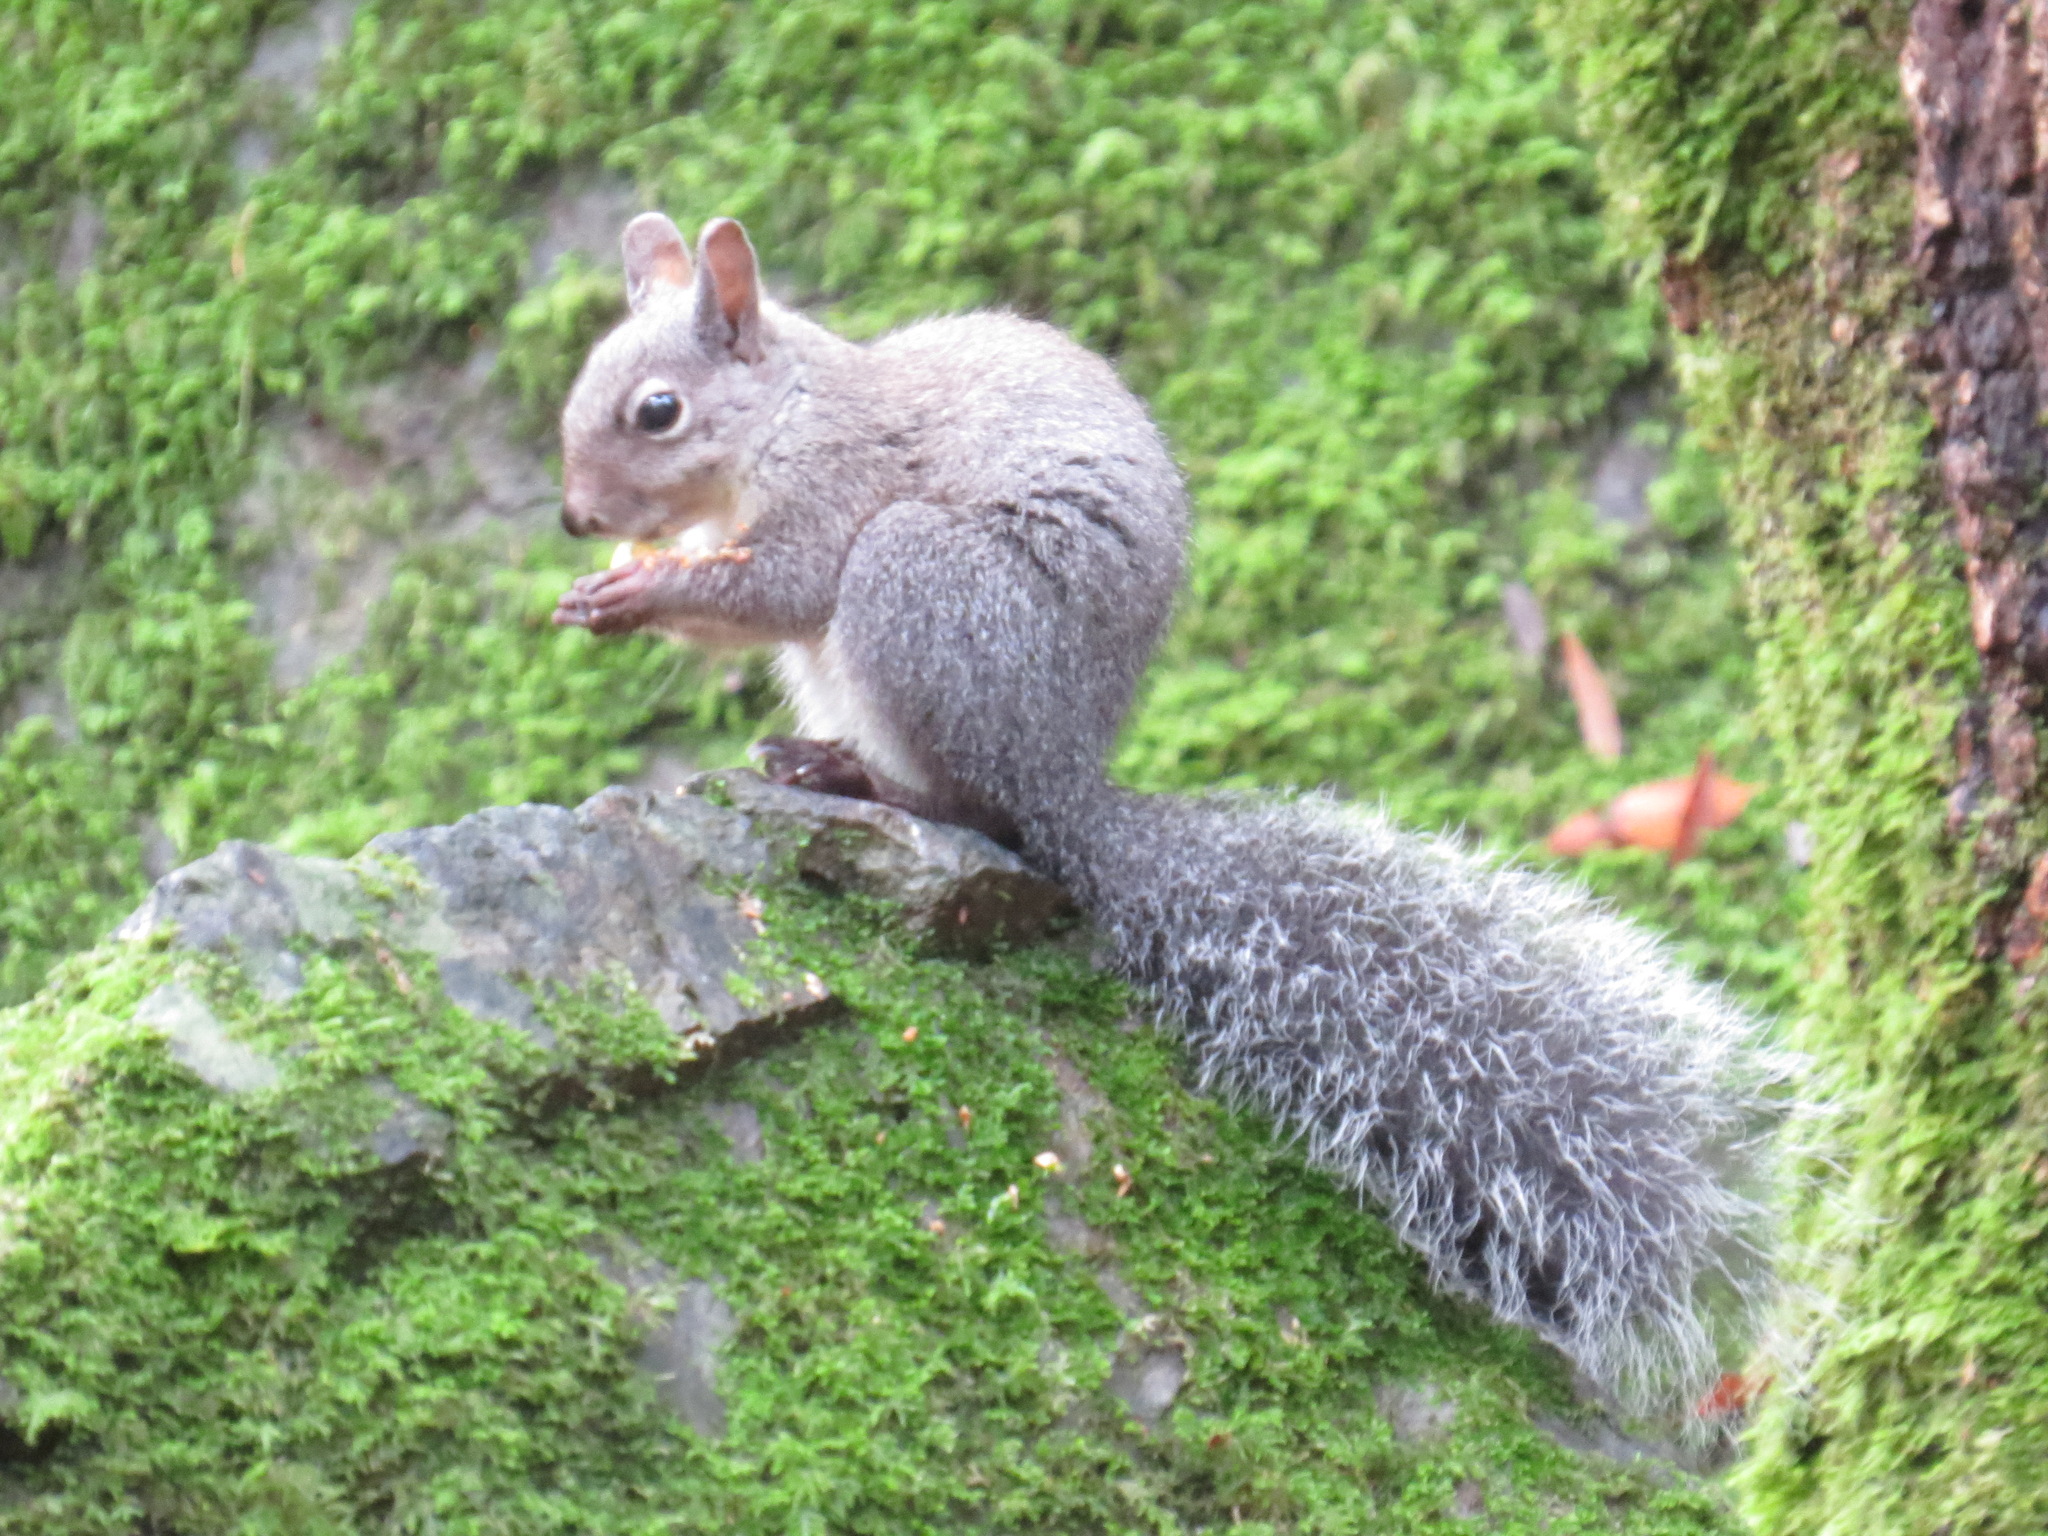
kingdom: Animalia
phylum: Chordata
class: Mammalia
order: Rodentia
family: Sciuridae
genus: Sciurus
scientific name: Sciurus griseus
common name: Western gray squirrel
